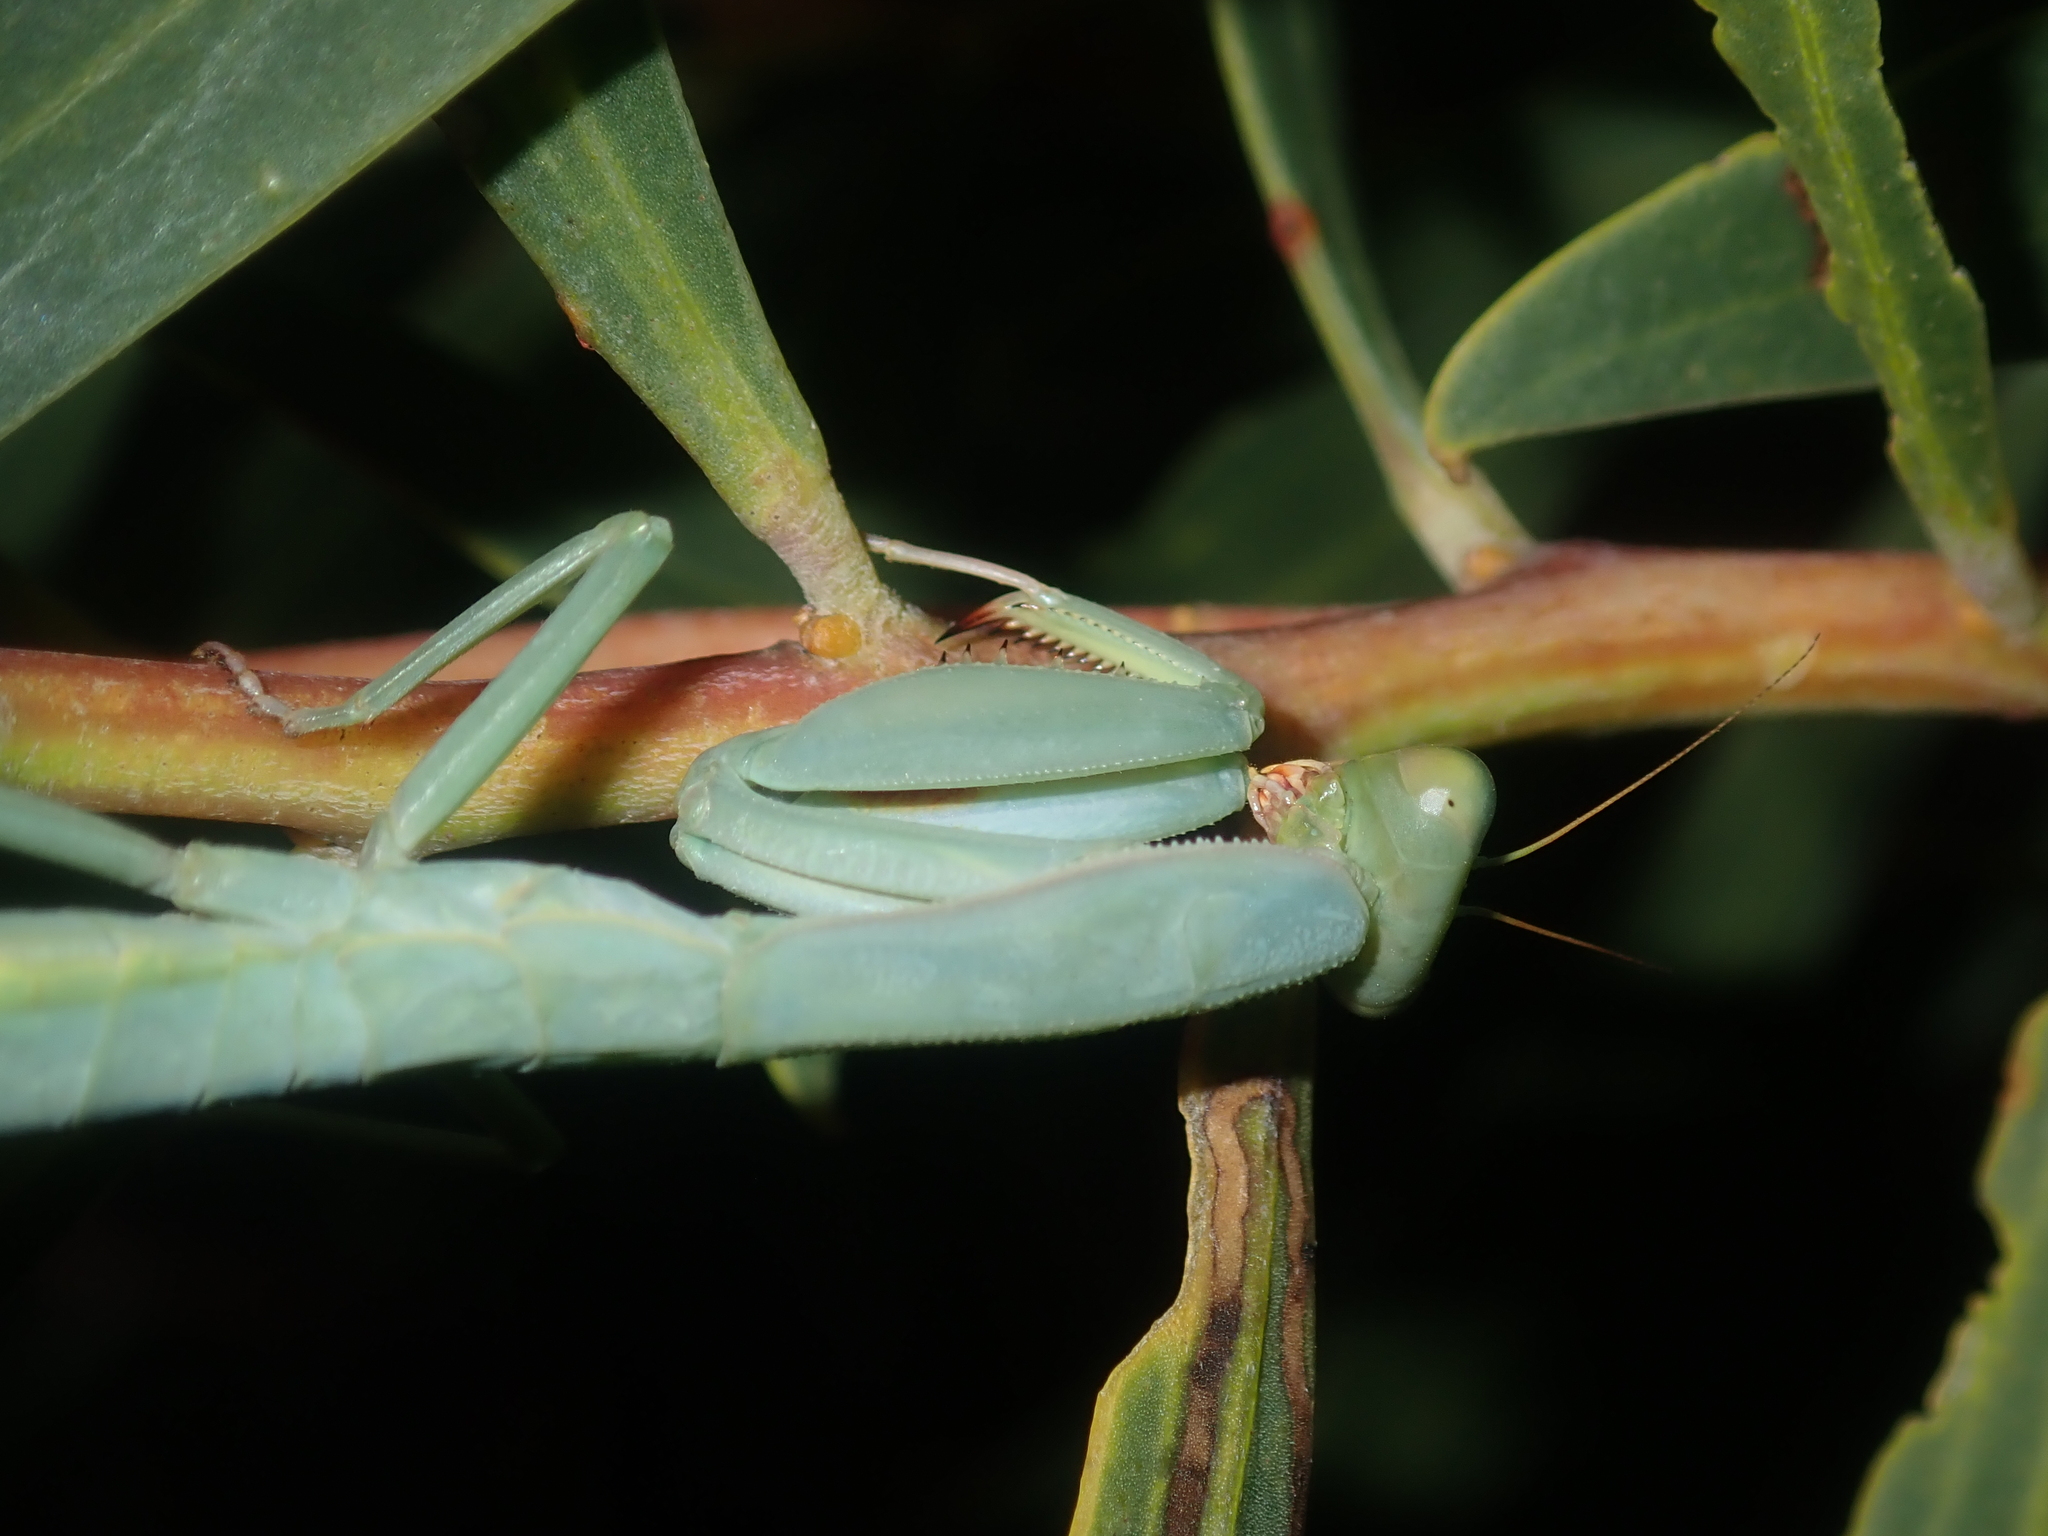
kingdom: Animalia
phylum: Arthropoda
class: Insecta
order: Mantodea
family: Mantidae
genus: Trachymantis
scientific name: Trachymantis dentifrons
